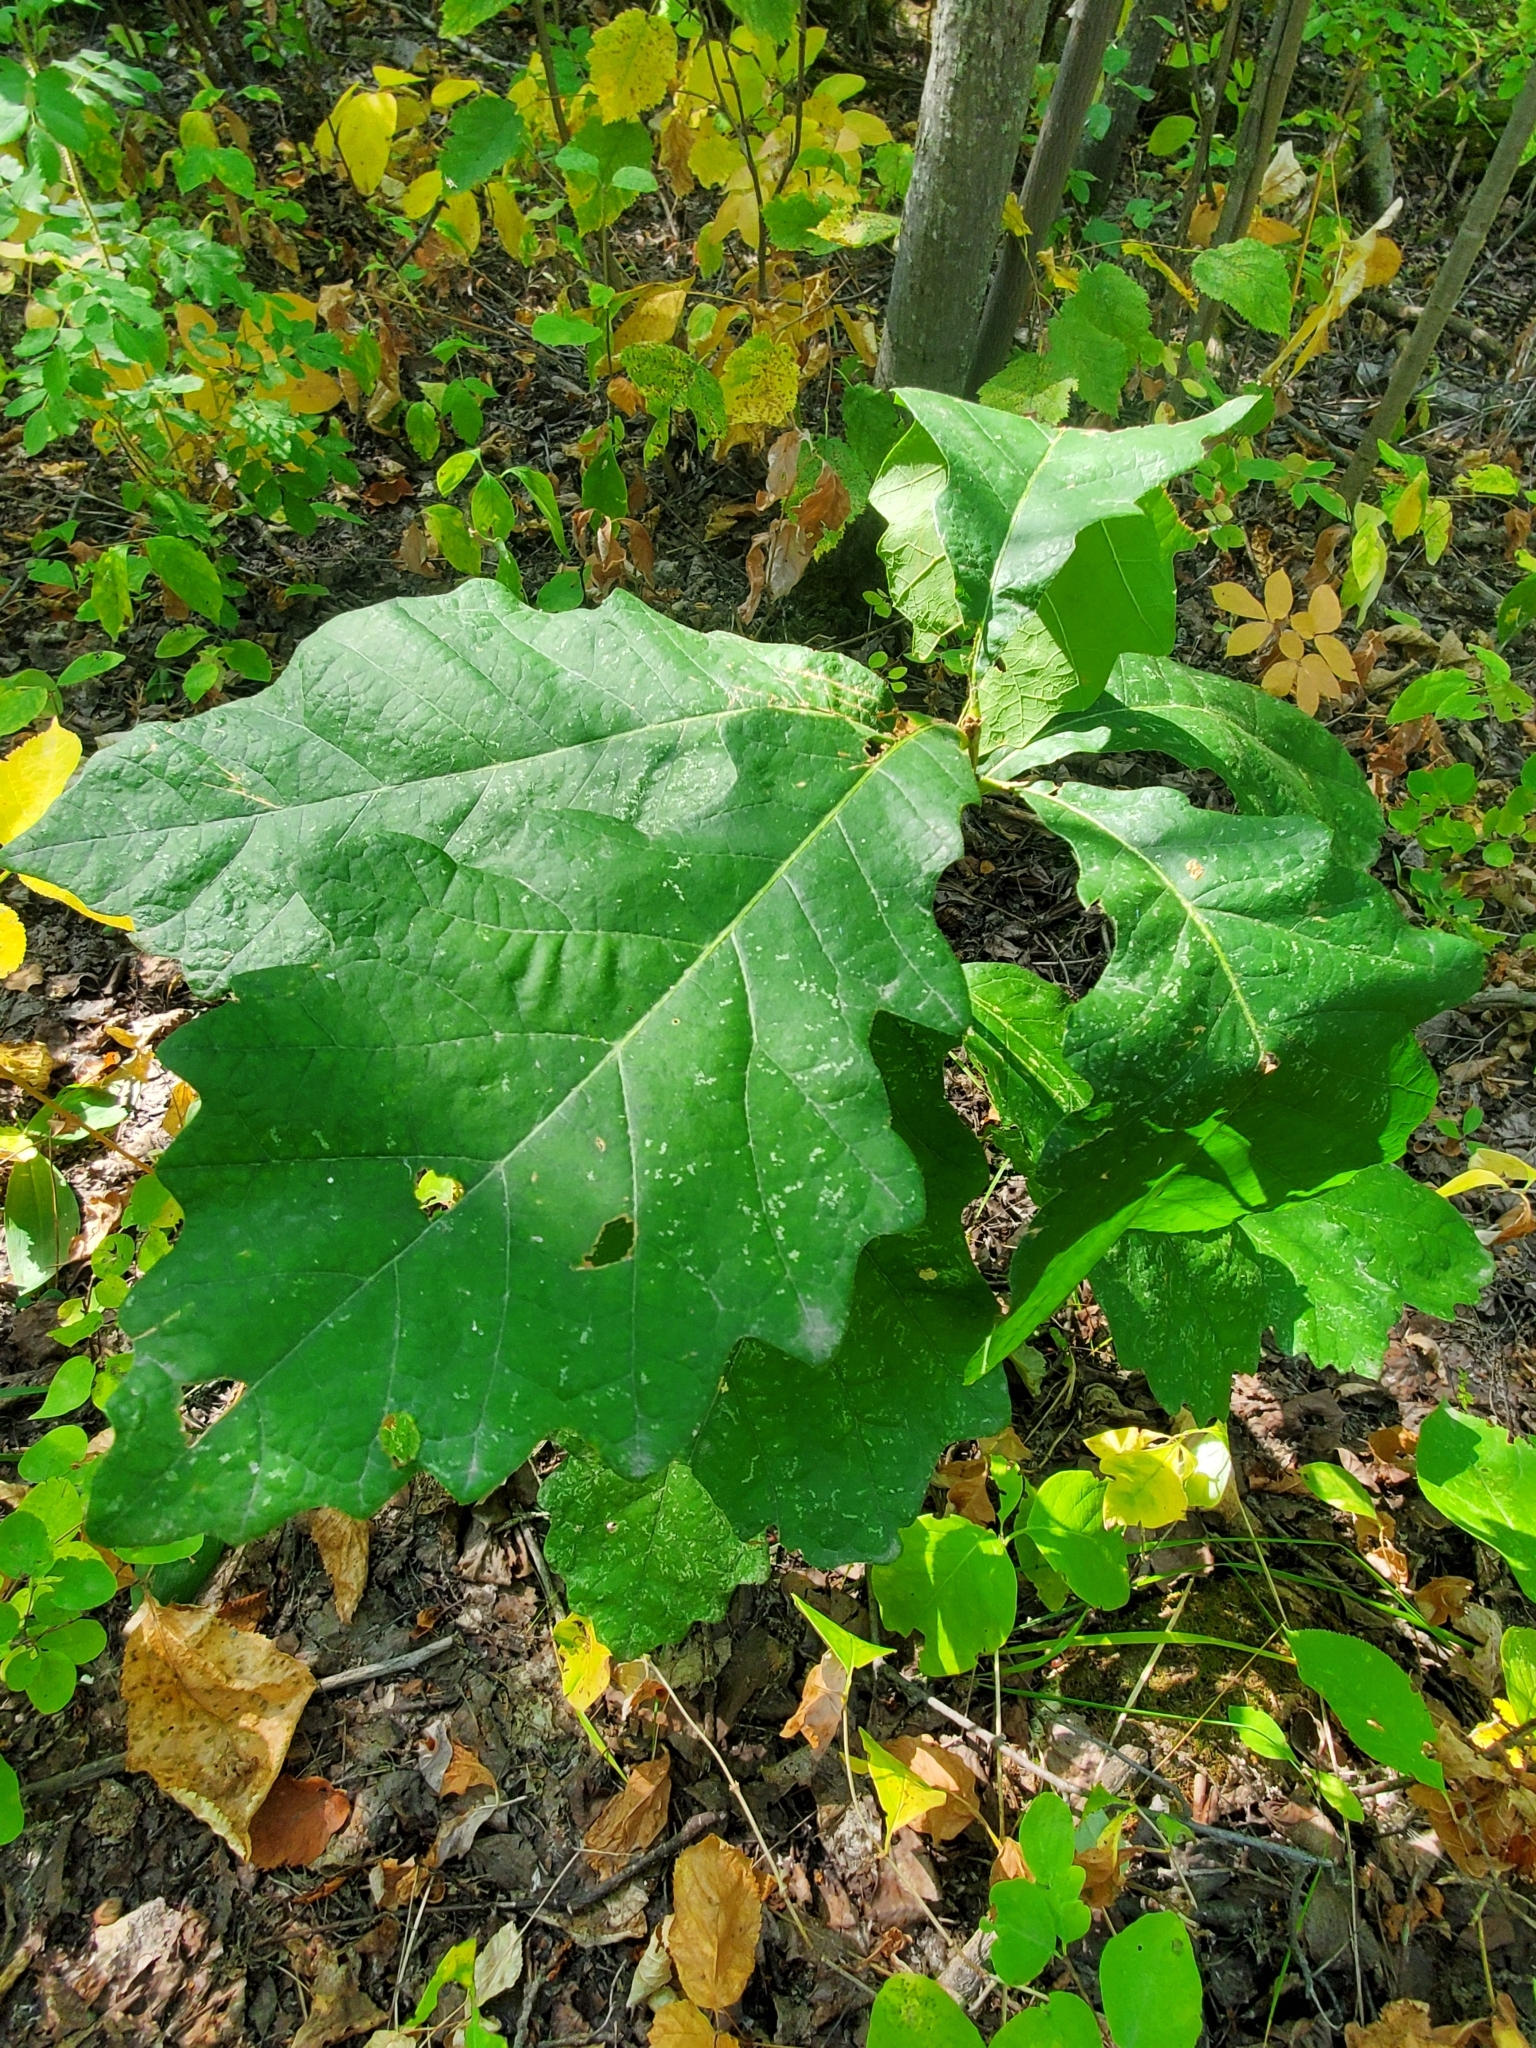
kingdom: Plantae
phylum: Tracheophyta
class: Magnoliopsida
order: Fagales
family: Fagaceae
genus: Quercus
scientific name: Quercus macrocarpa
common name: Bur oak
